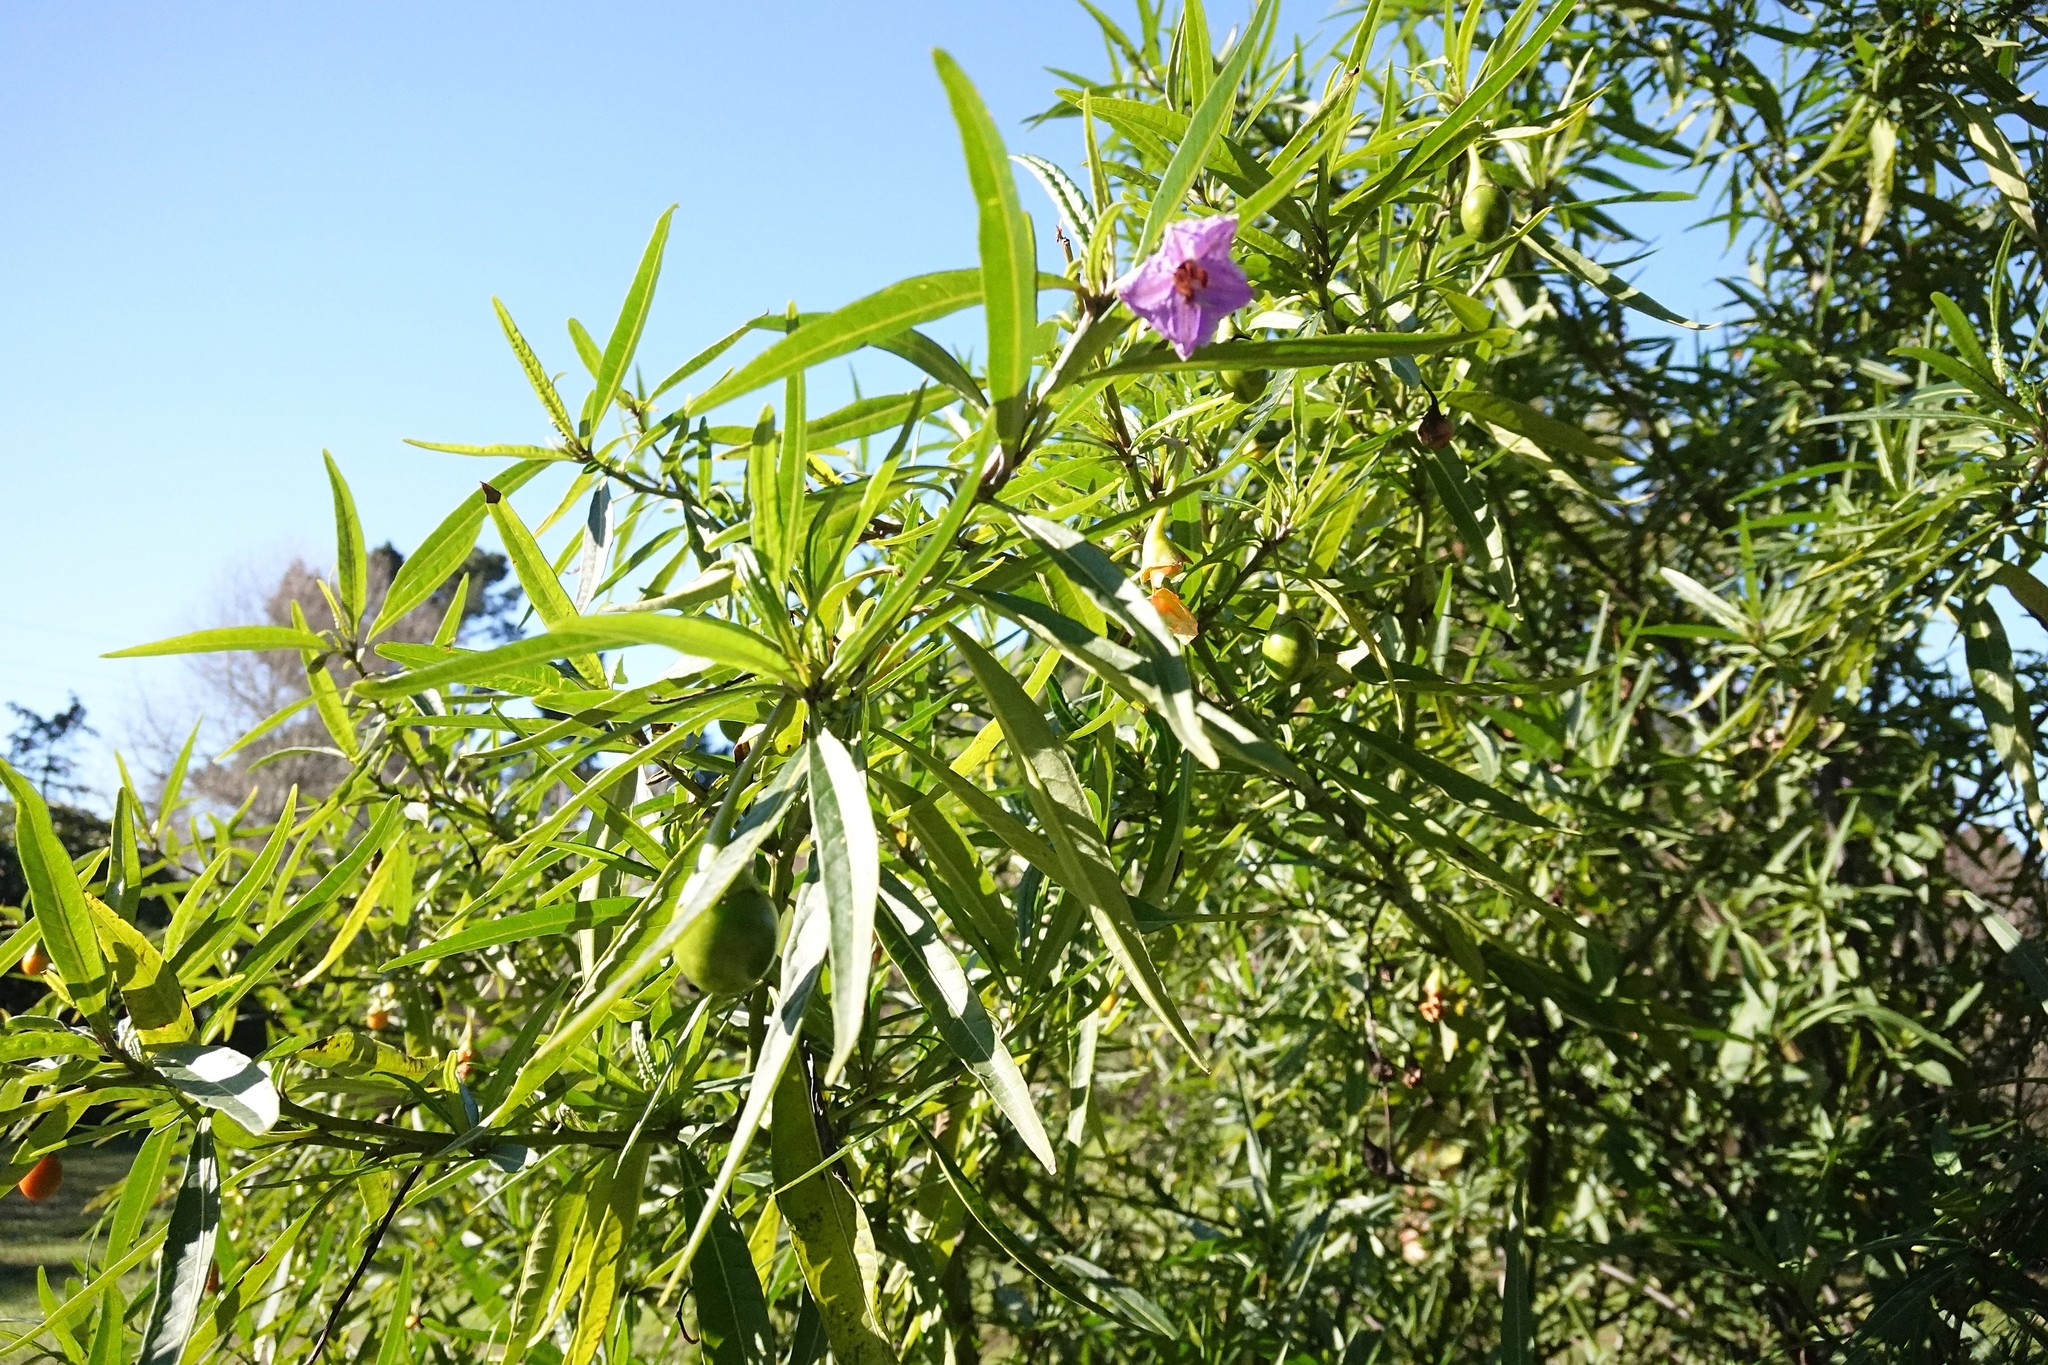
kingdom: Plantae
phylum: Tracheophyta
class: Magnoliopsida
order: Solanales
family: Solanaceae
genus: Solanum
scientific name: Solanum laciniatum
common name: Kangaroo-apple
